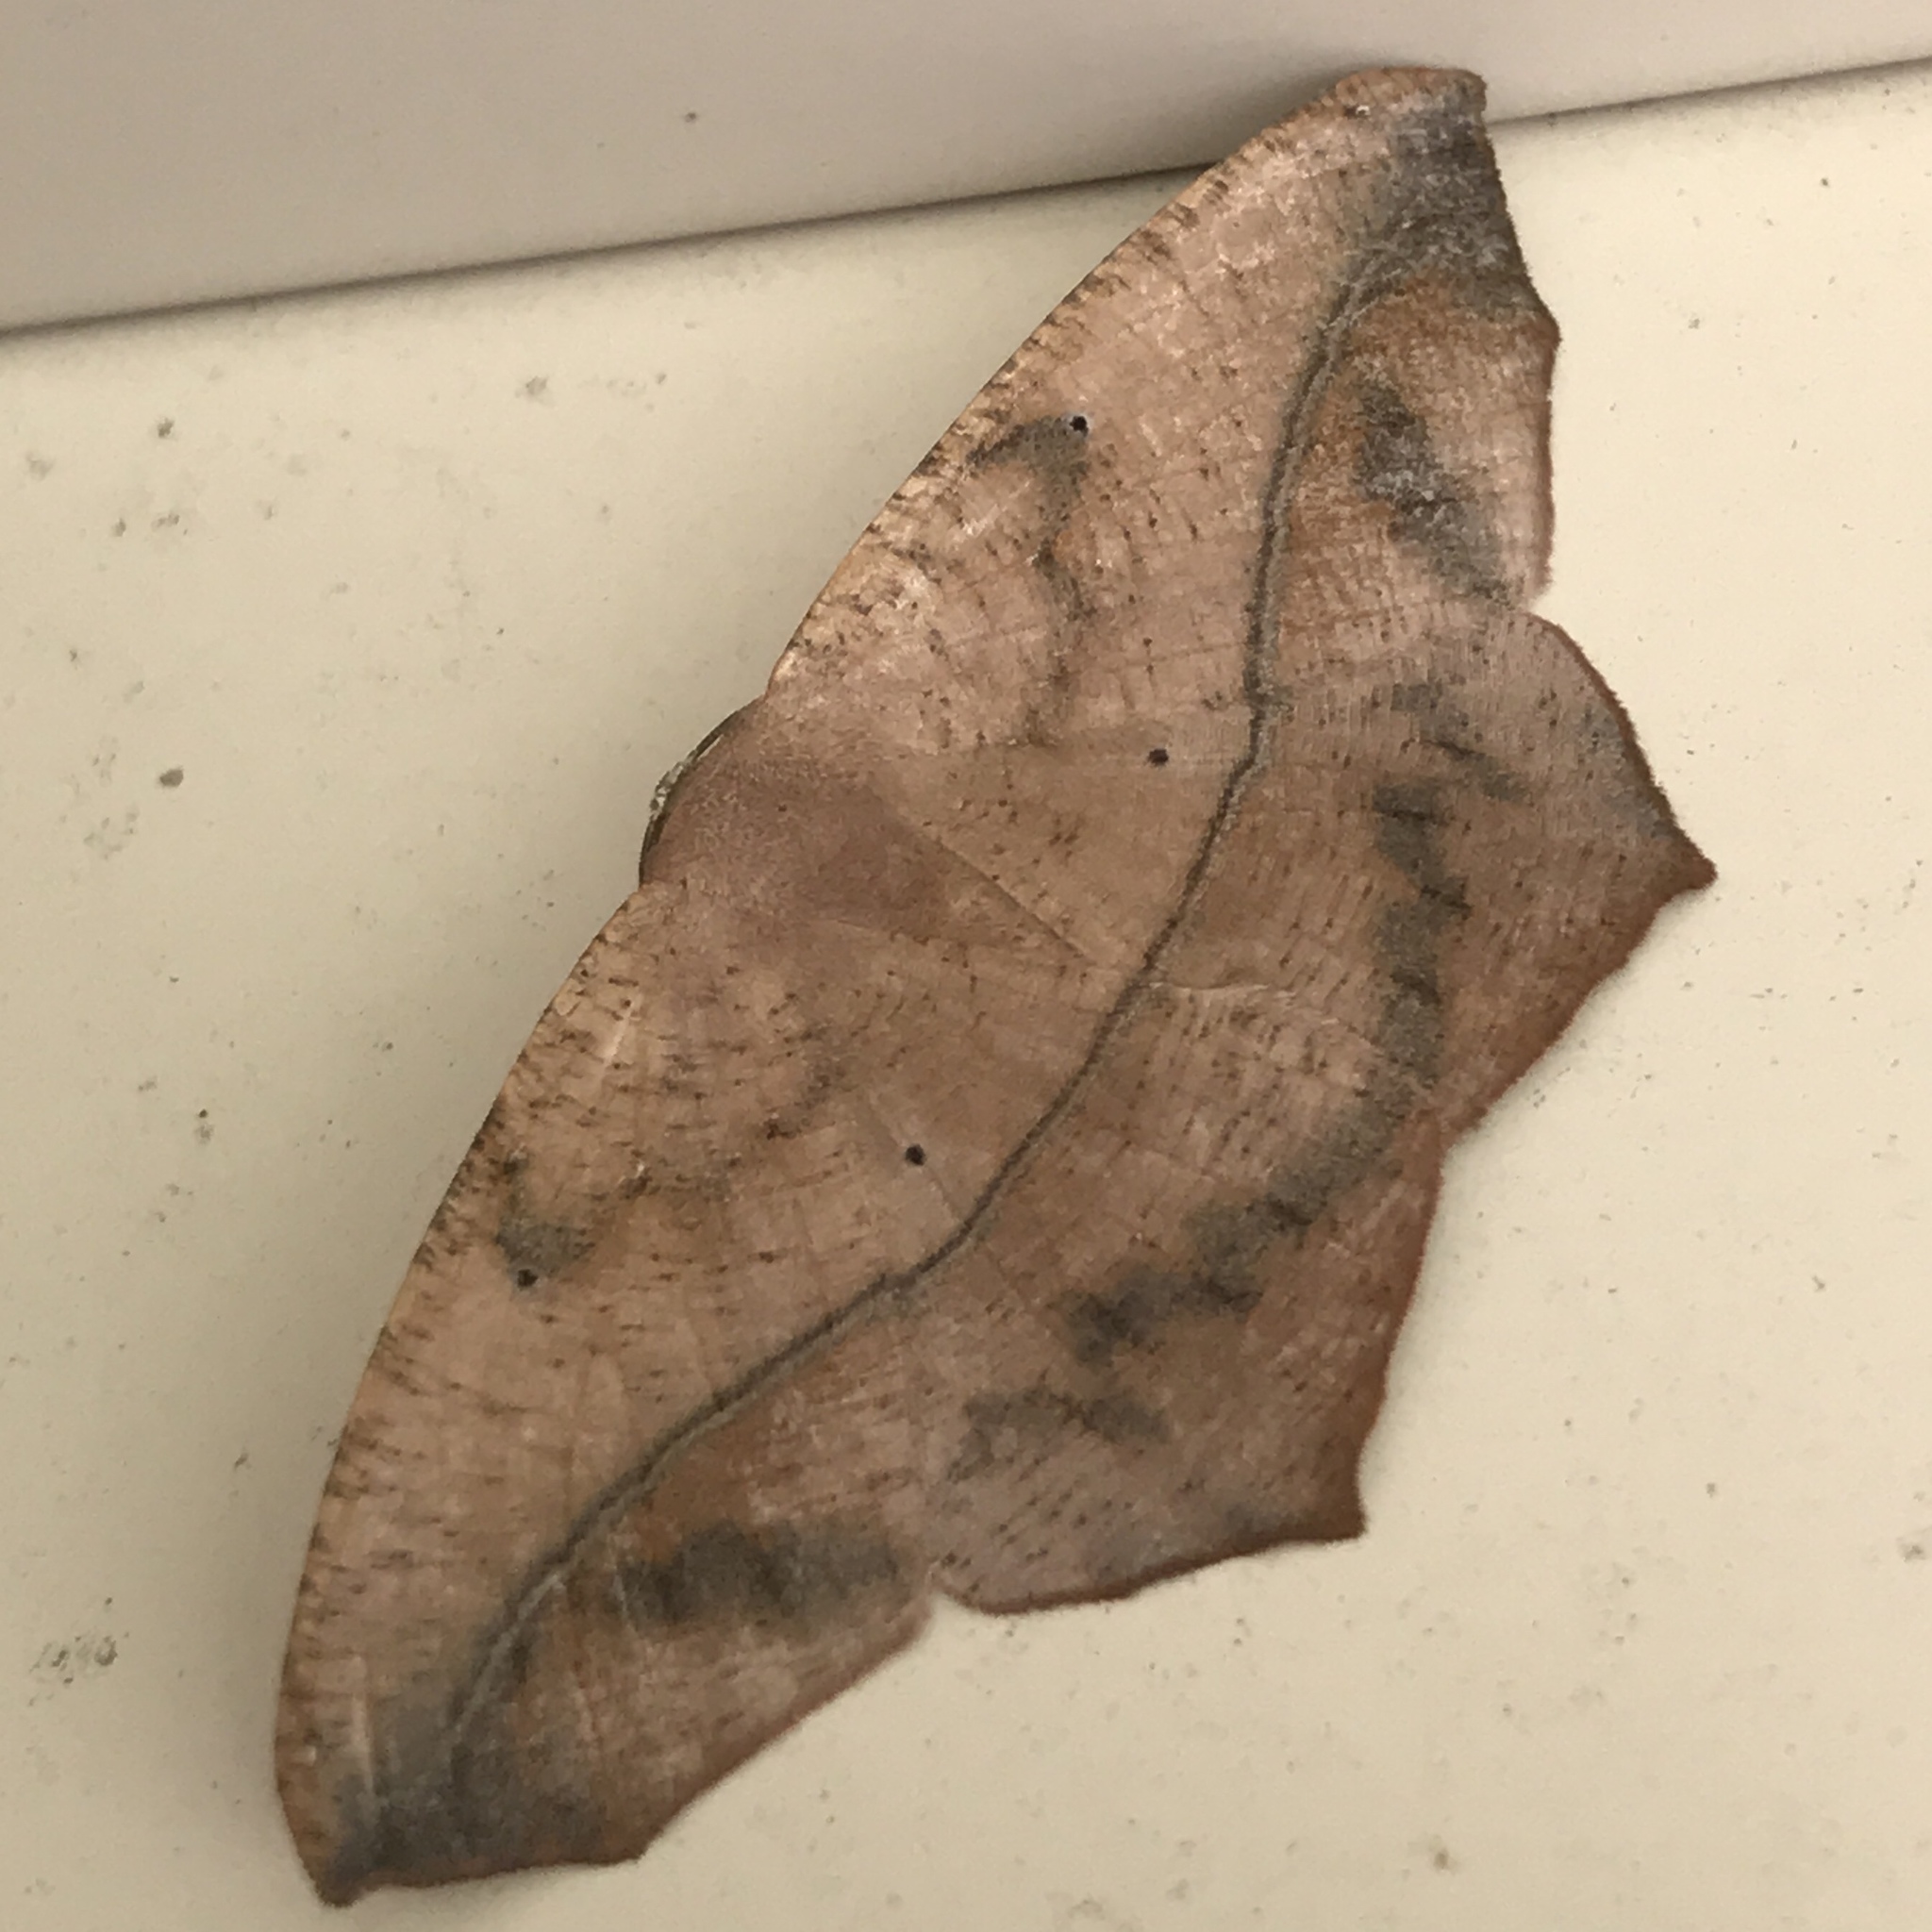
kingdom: Animalia
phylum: Arthropoda
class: Insecta
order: Lepidoptera
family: Geometridae
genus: Prochoerodes
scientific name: Prochoerodes lineola
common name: Large maple spanworm
